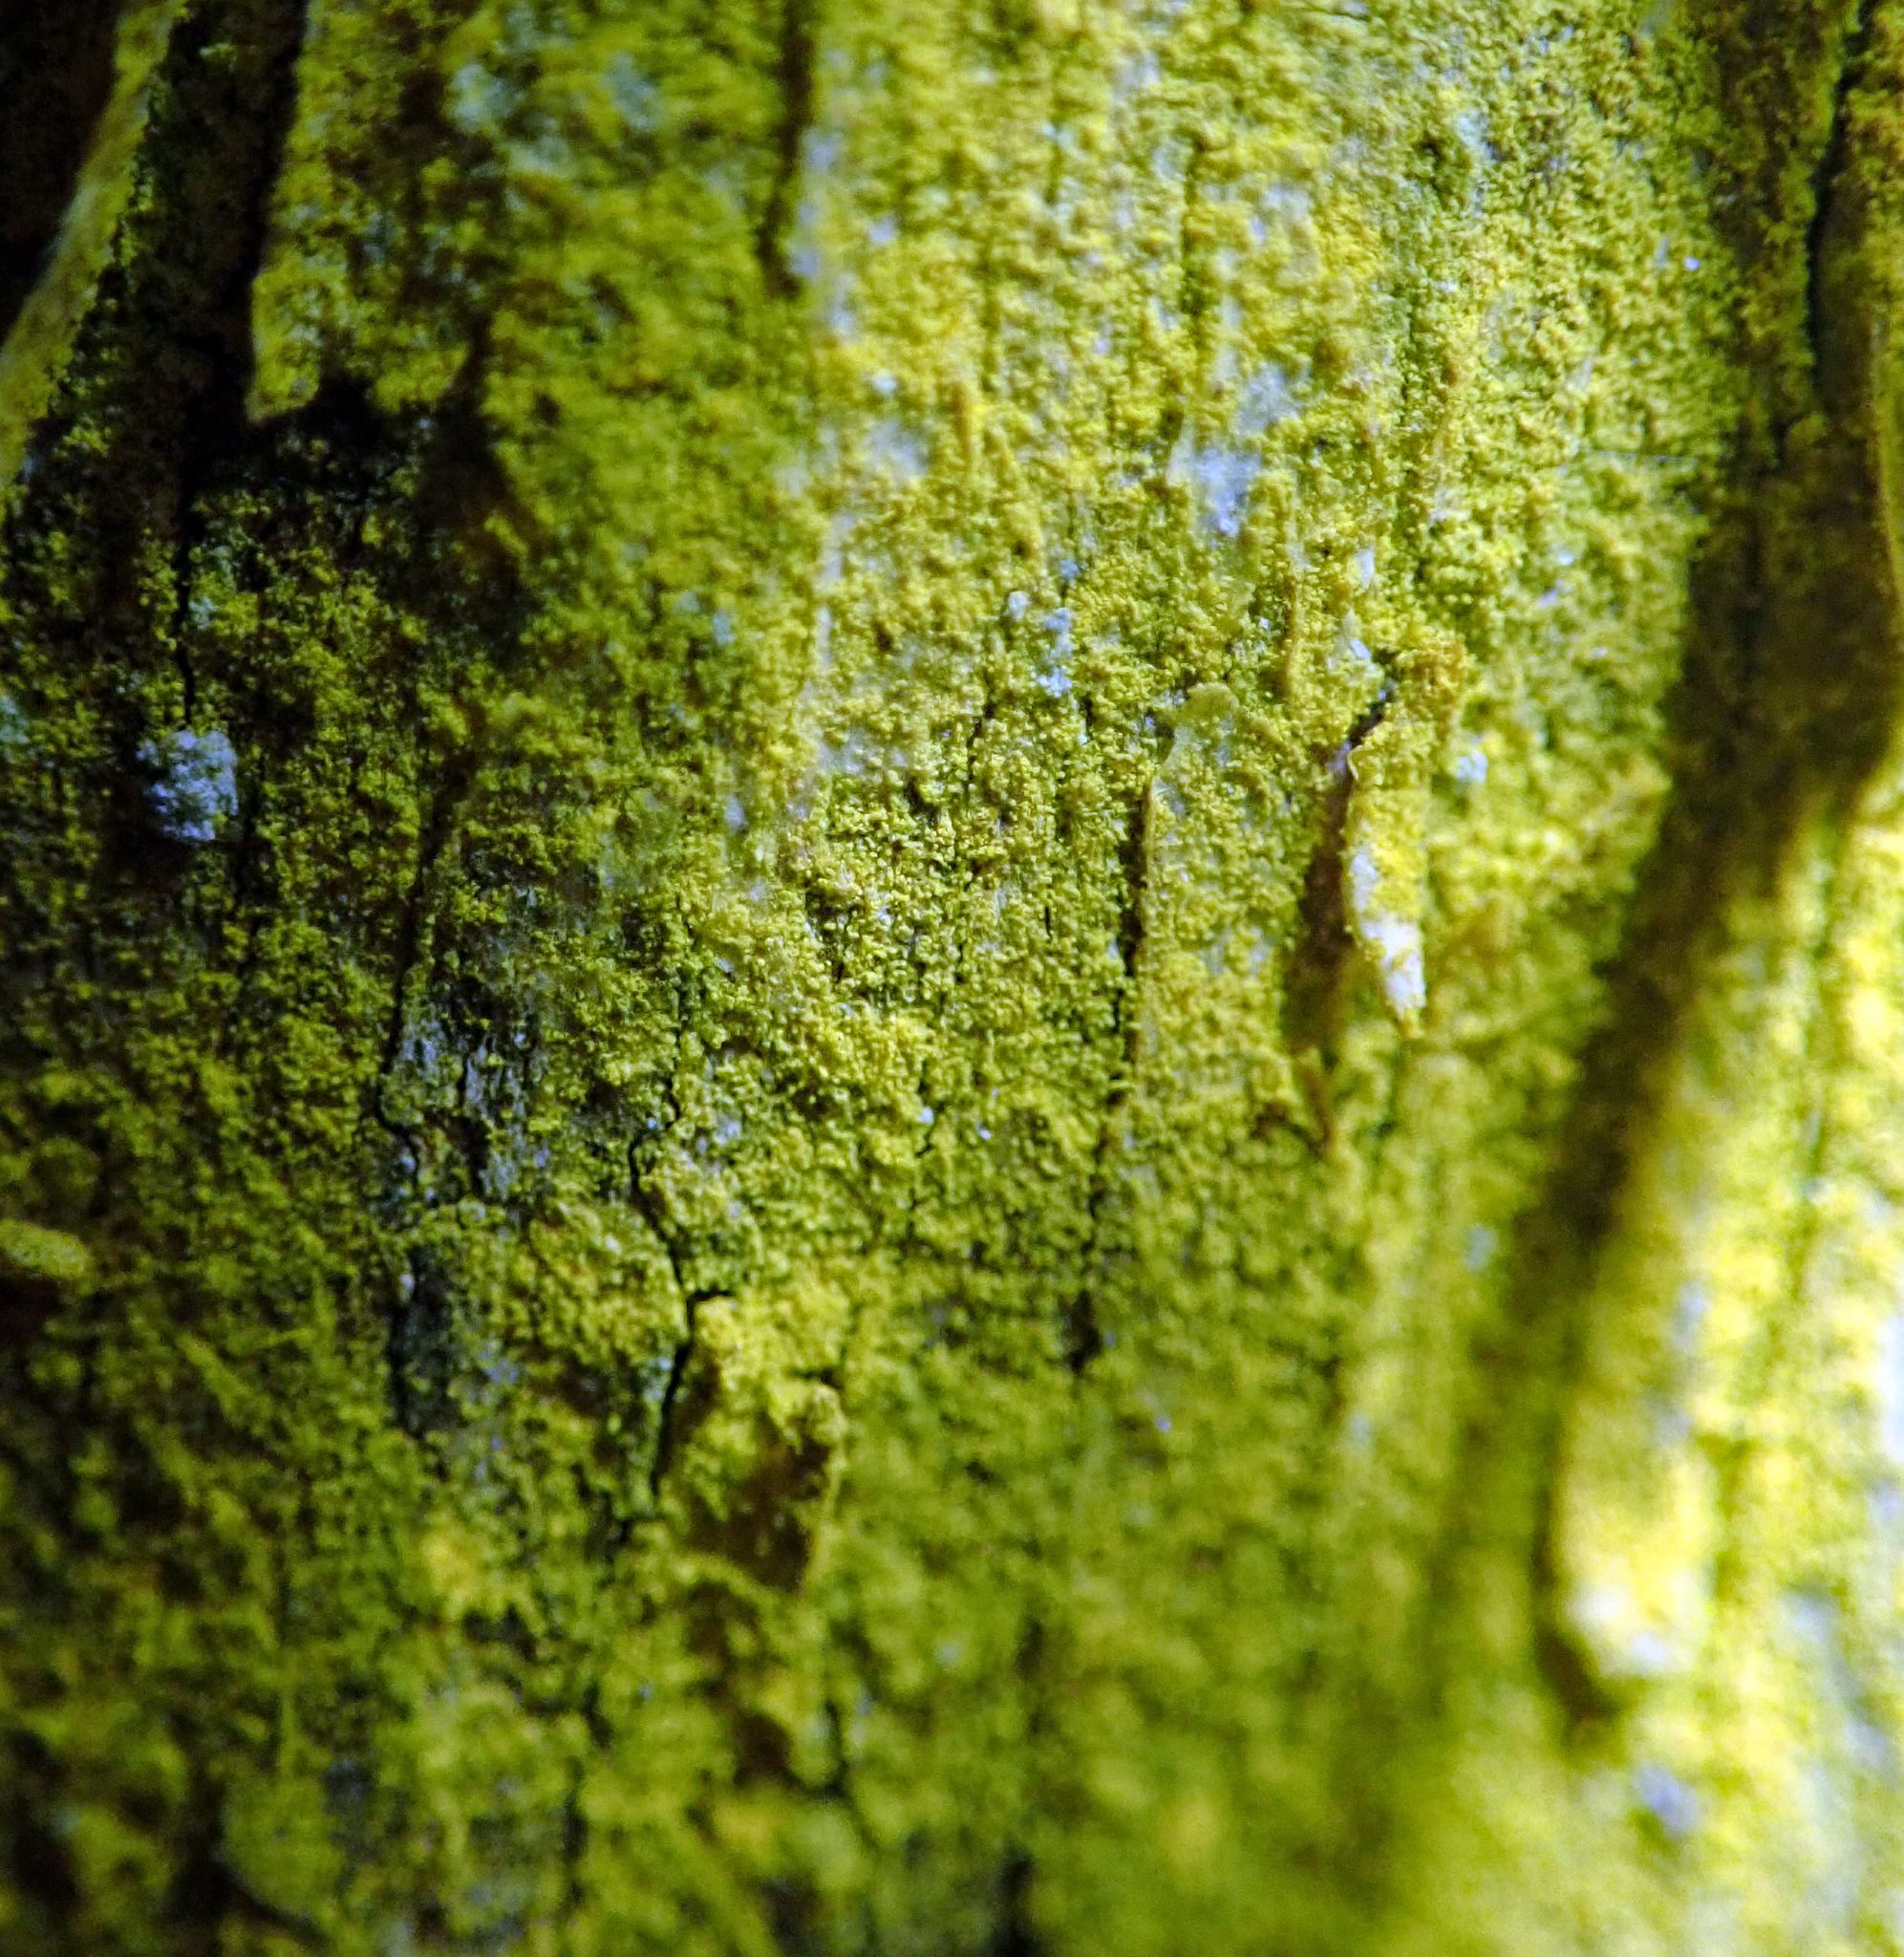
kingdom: Fungi
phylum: Ascomycota
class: Arthoniomycetes
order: Arthoniales
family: Chrysotrichaceae
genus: Chrysothrix
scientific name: Chrysothrix xanthina
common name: Common gold-dust
